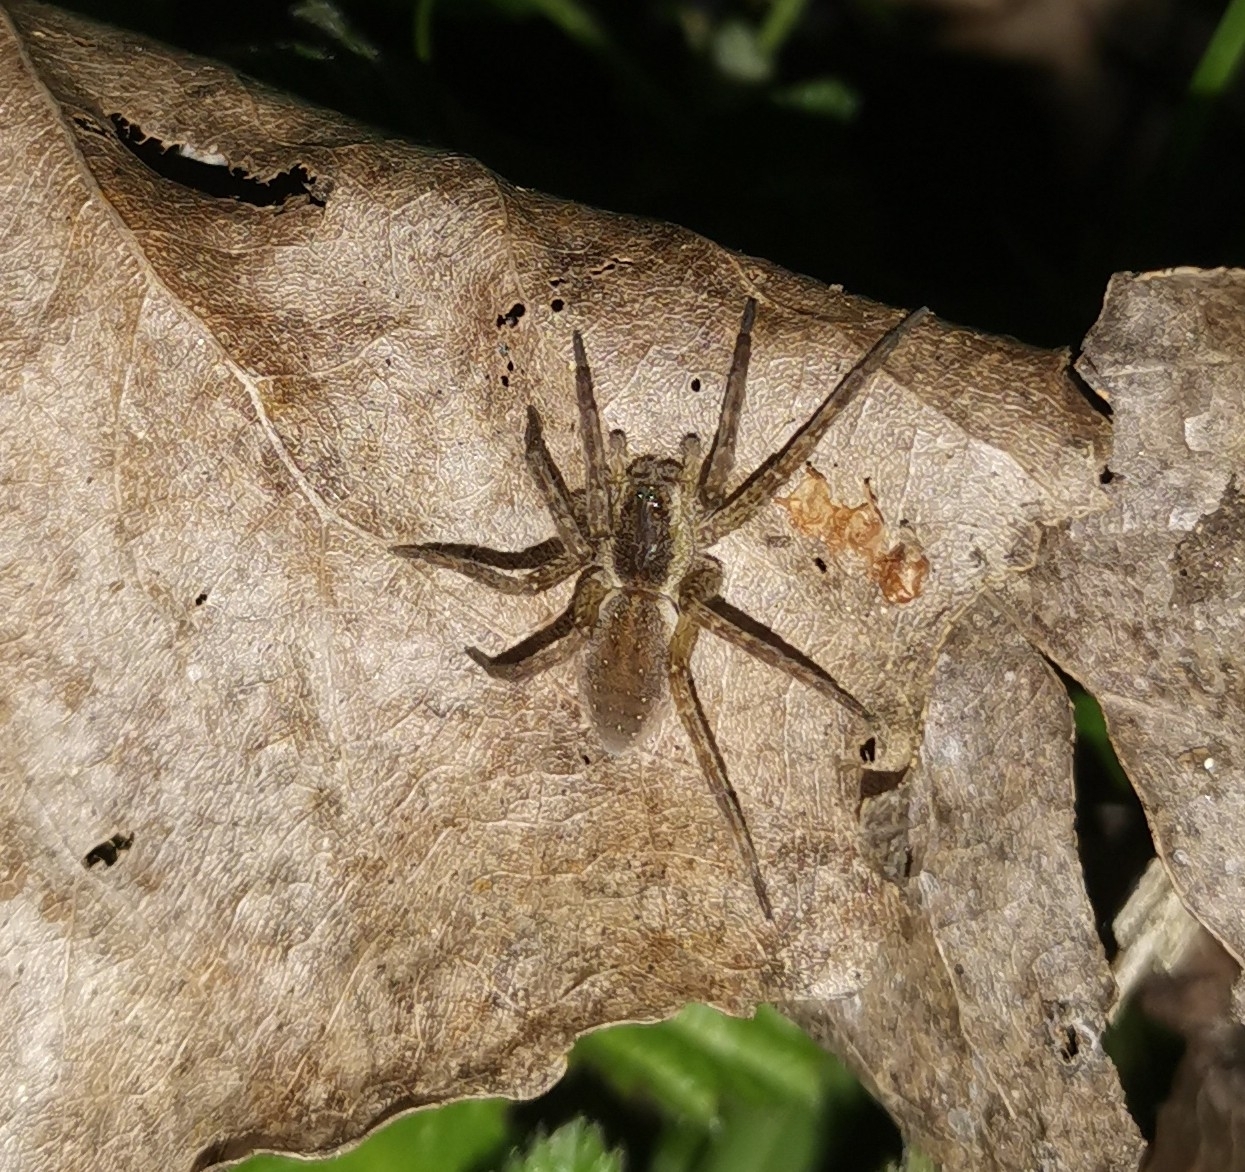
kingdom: Animalia
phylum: Arthropoda
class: Arachnida
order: Araneae
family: Pisauridae
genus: Dolomedes
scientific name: Dolomedes
